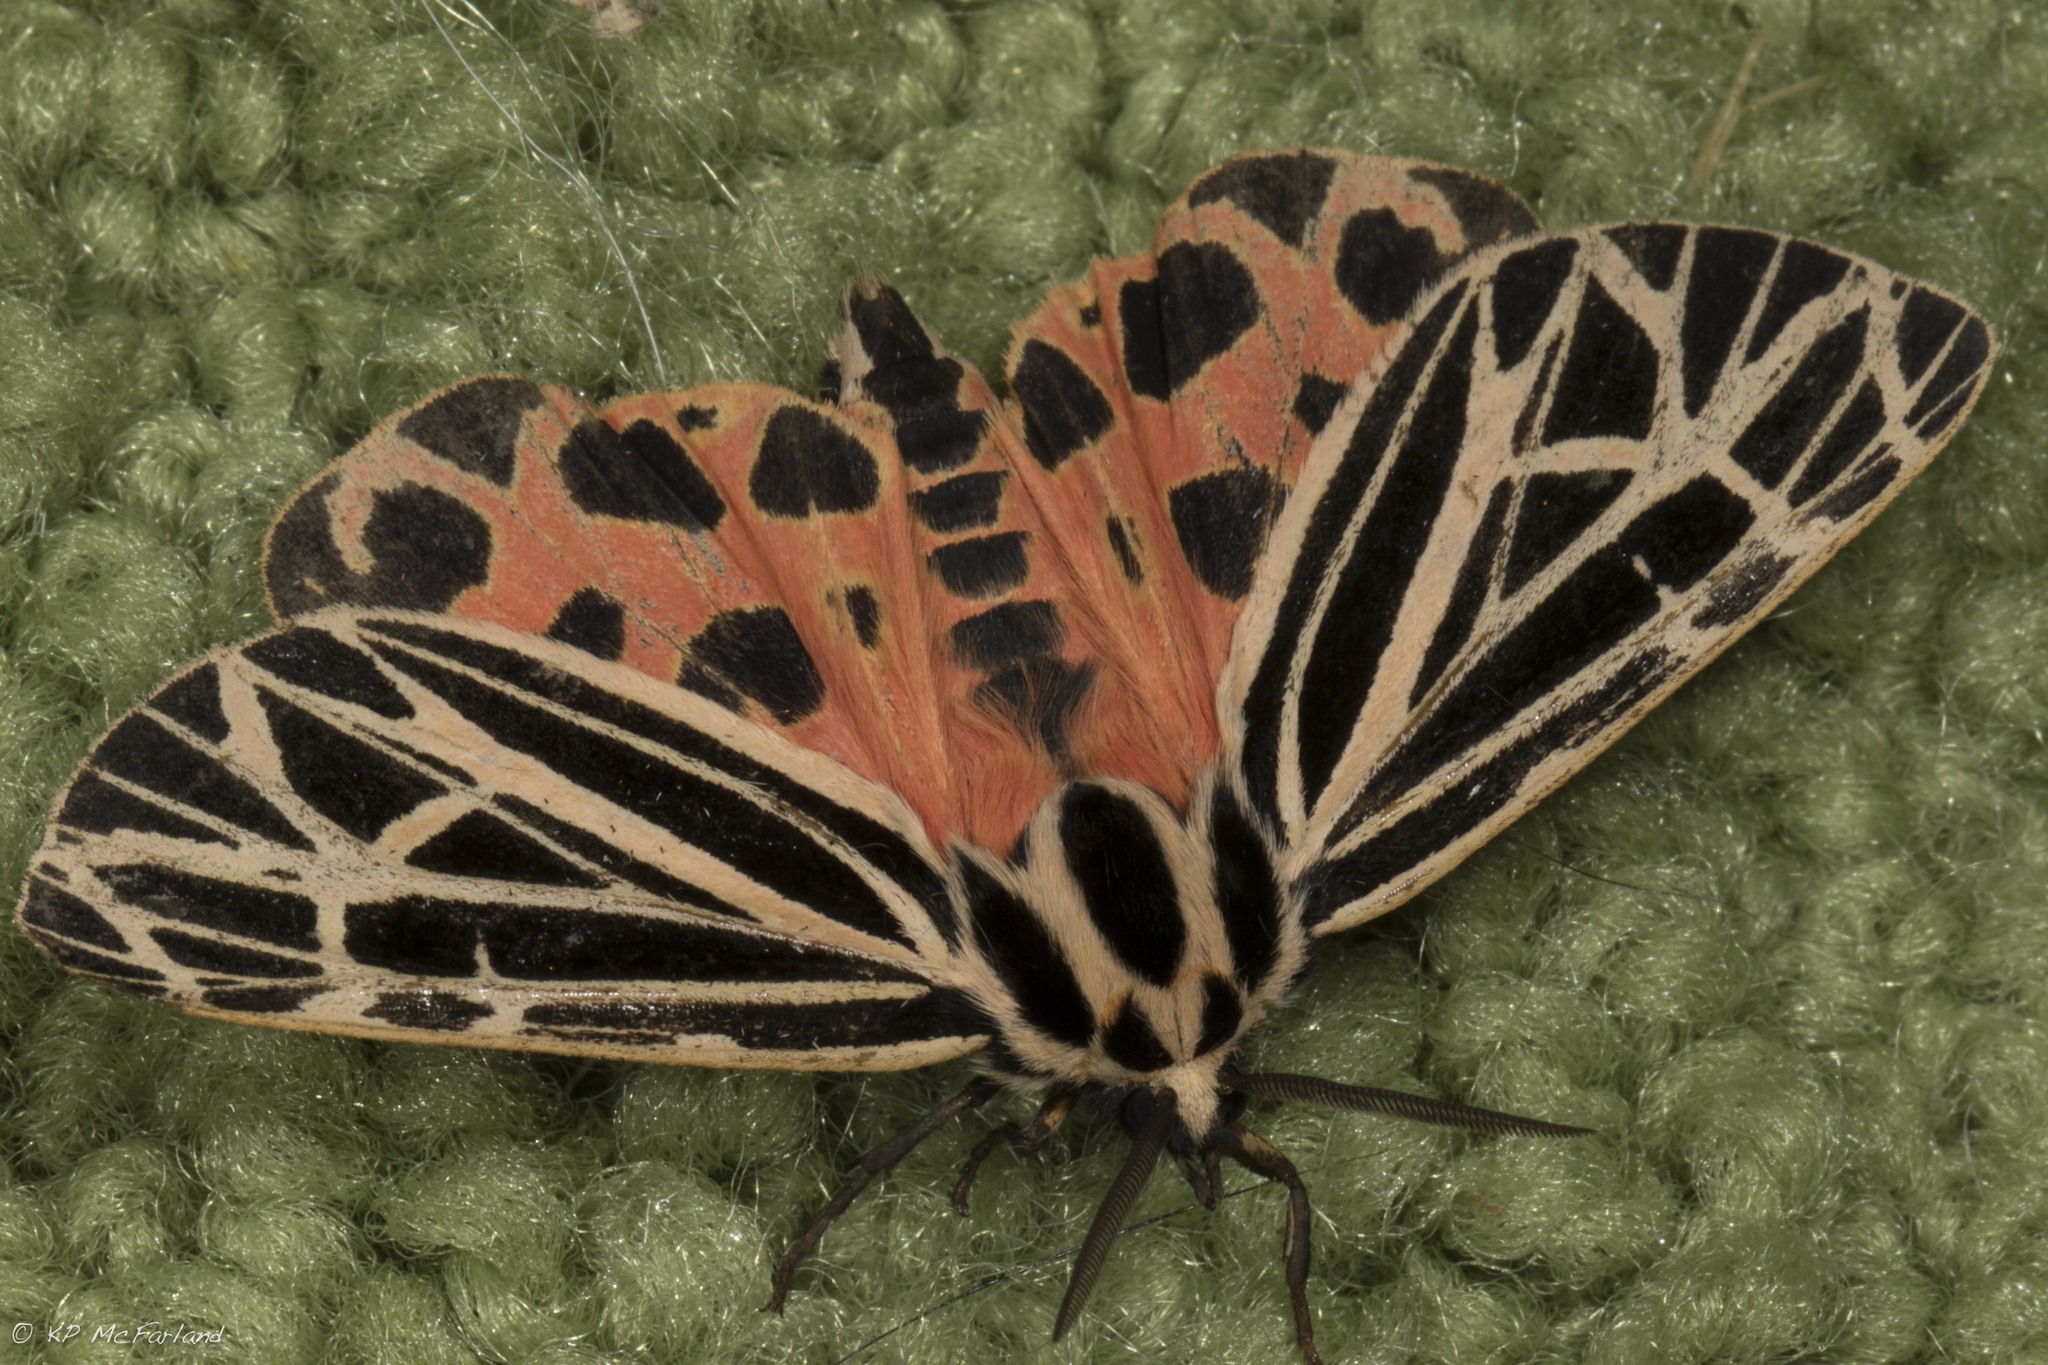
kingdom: Animalia
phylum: Arthropoda
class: Insecta
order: Lepidoptera
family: Erebidae
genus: Grammia
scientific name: Grammia virgo
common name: Virgin tiger moth
